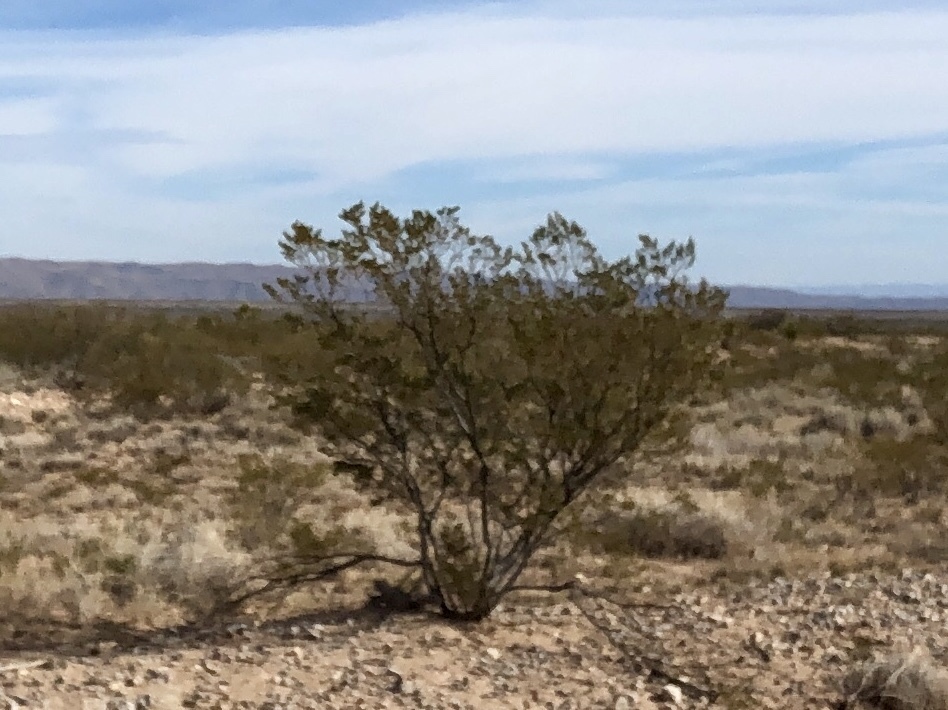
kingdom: Plantae
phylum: Tracheophyta
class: Magnoliopsida
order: Zygophyllales
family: Zygophyllaceae
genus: Larrea
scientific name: Larrea tridentata
